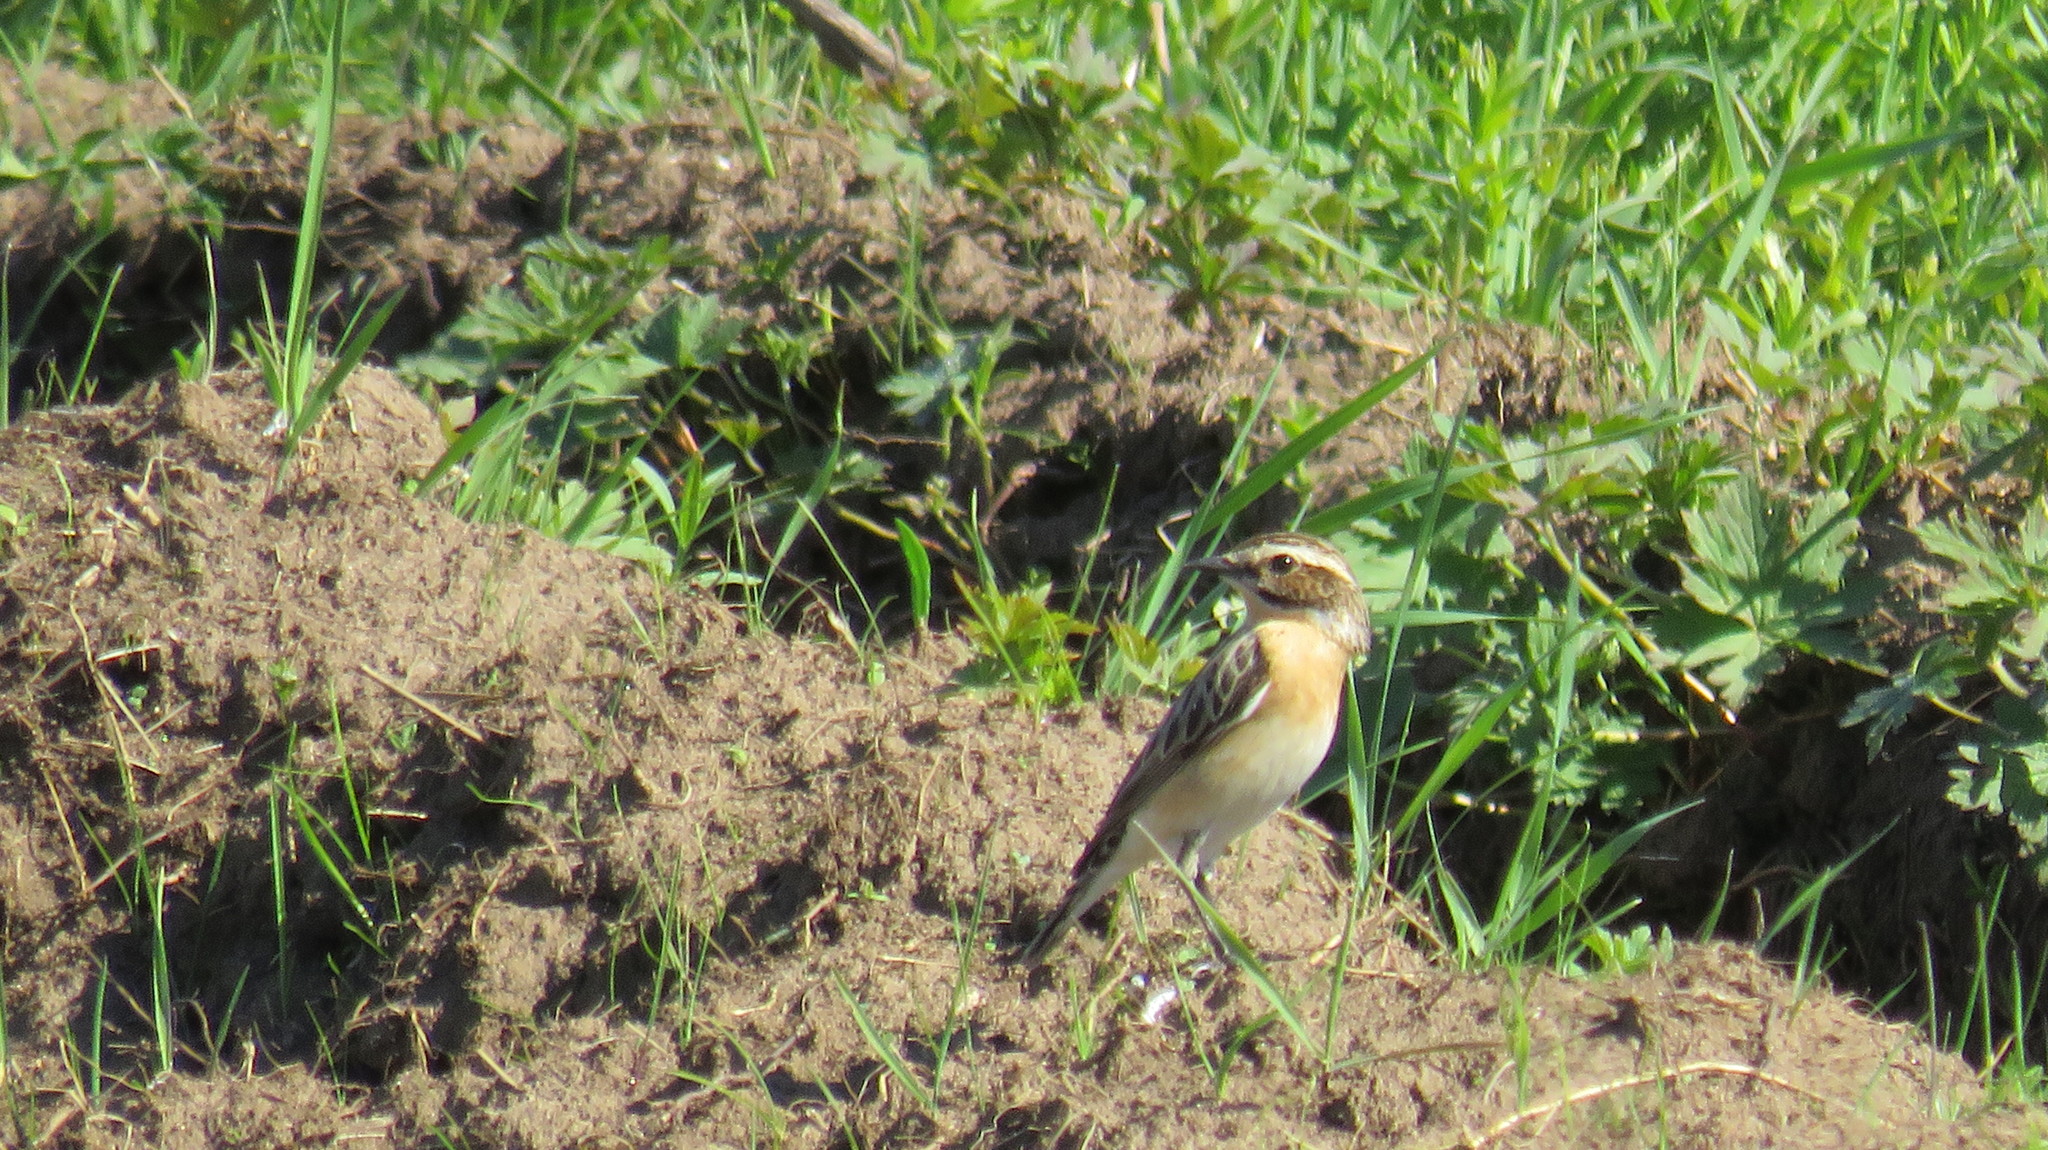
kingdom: Animalia
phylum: Chordata
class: Aves
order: Passeriformes
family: Muscicapidae
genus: Saxicola
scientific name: Saxicola rubetra
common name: Whinchat
